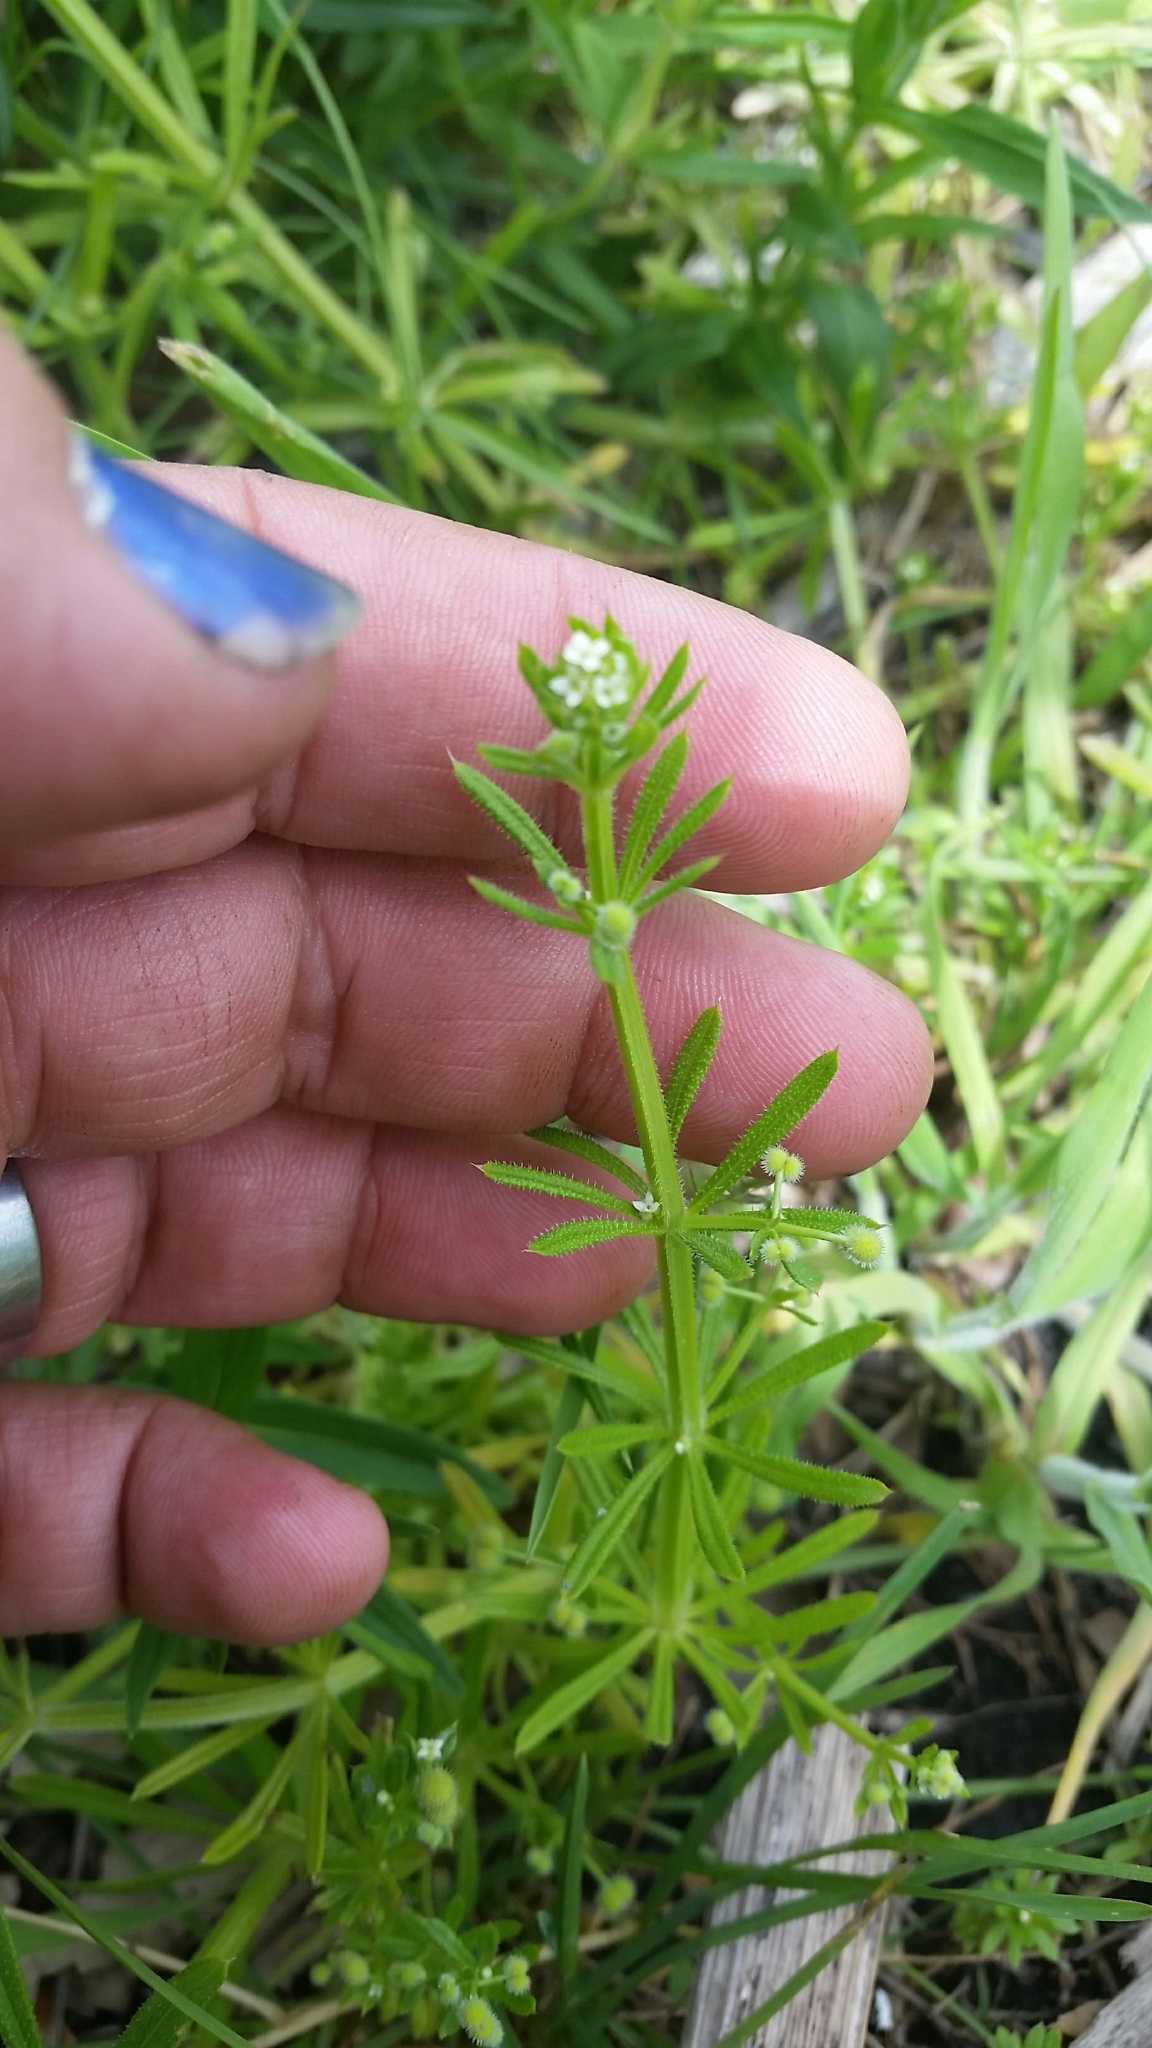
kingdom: Plantae
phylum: Tracheophyta
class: Magnoliopsida
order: Gentianales
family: Rubiaceae
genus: Galium
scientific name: Galium aparine
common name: Cleavers
